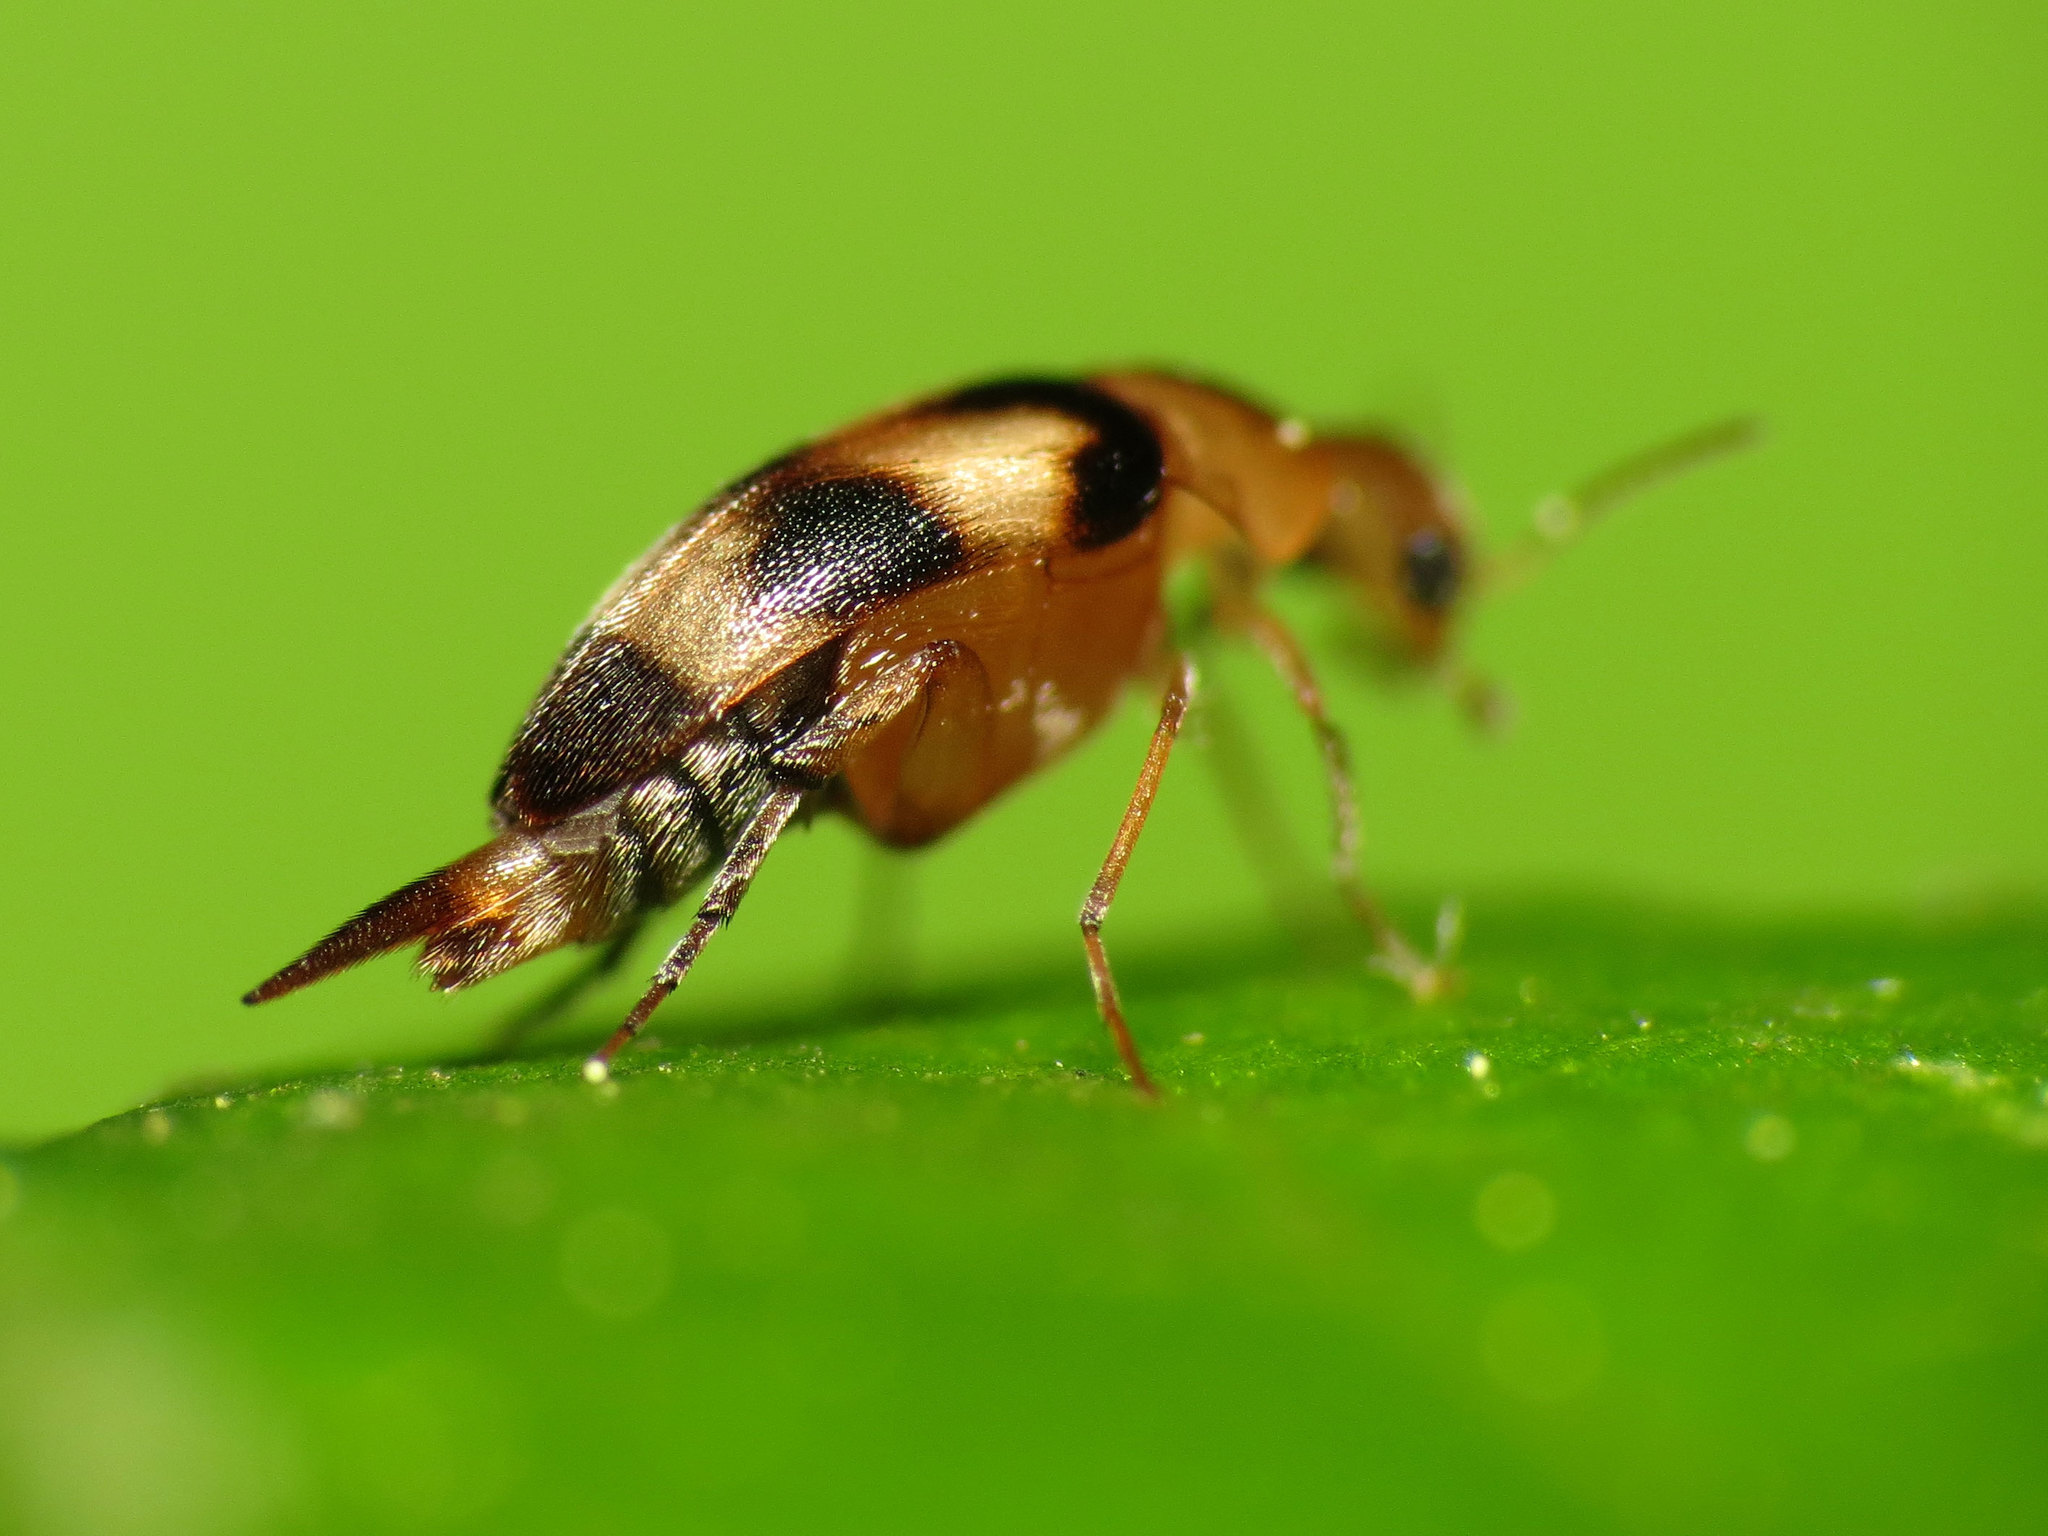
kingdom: Animalia
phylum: Arthropoda
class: Insecta
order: Coleoptera
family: Mordellidae
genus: Mordellistena
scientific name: Mordellistena trifasciata
